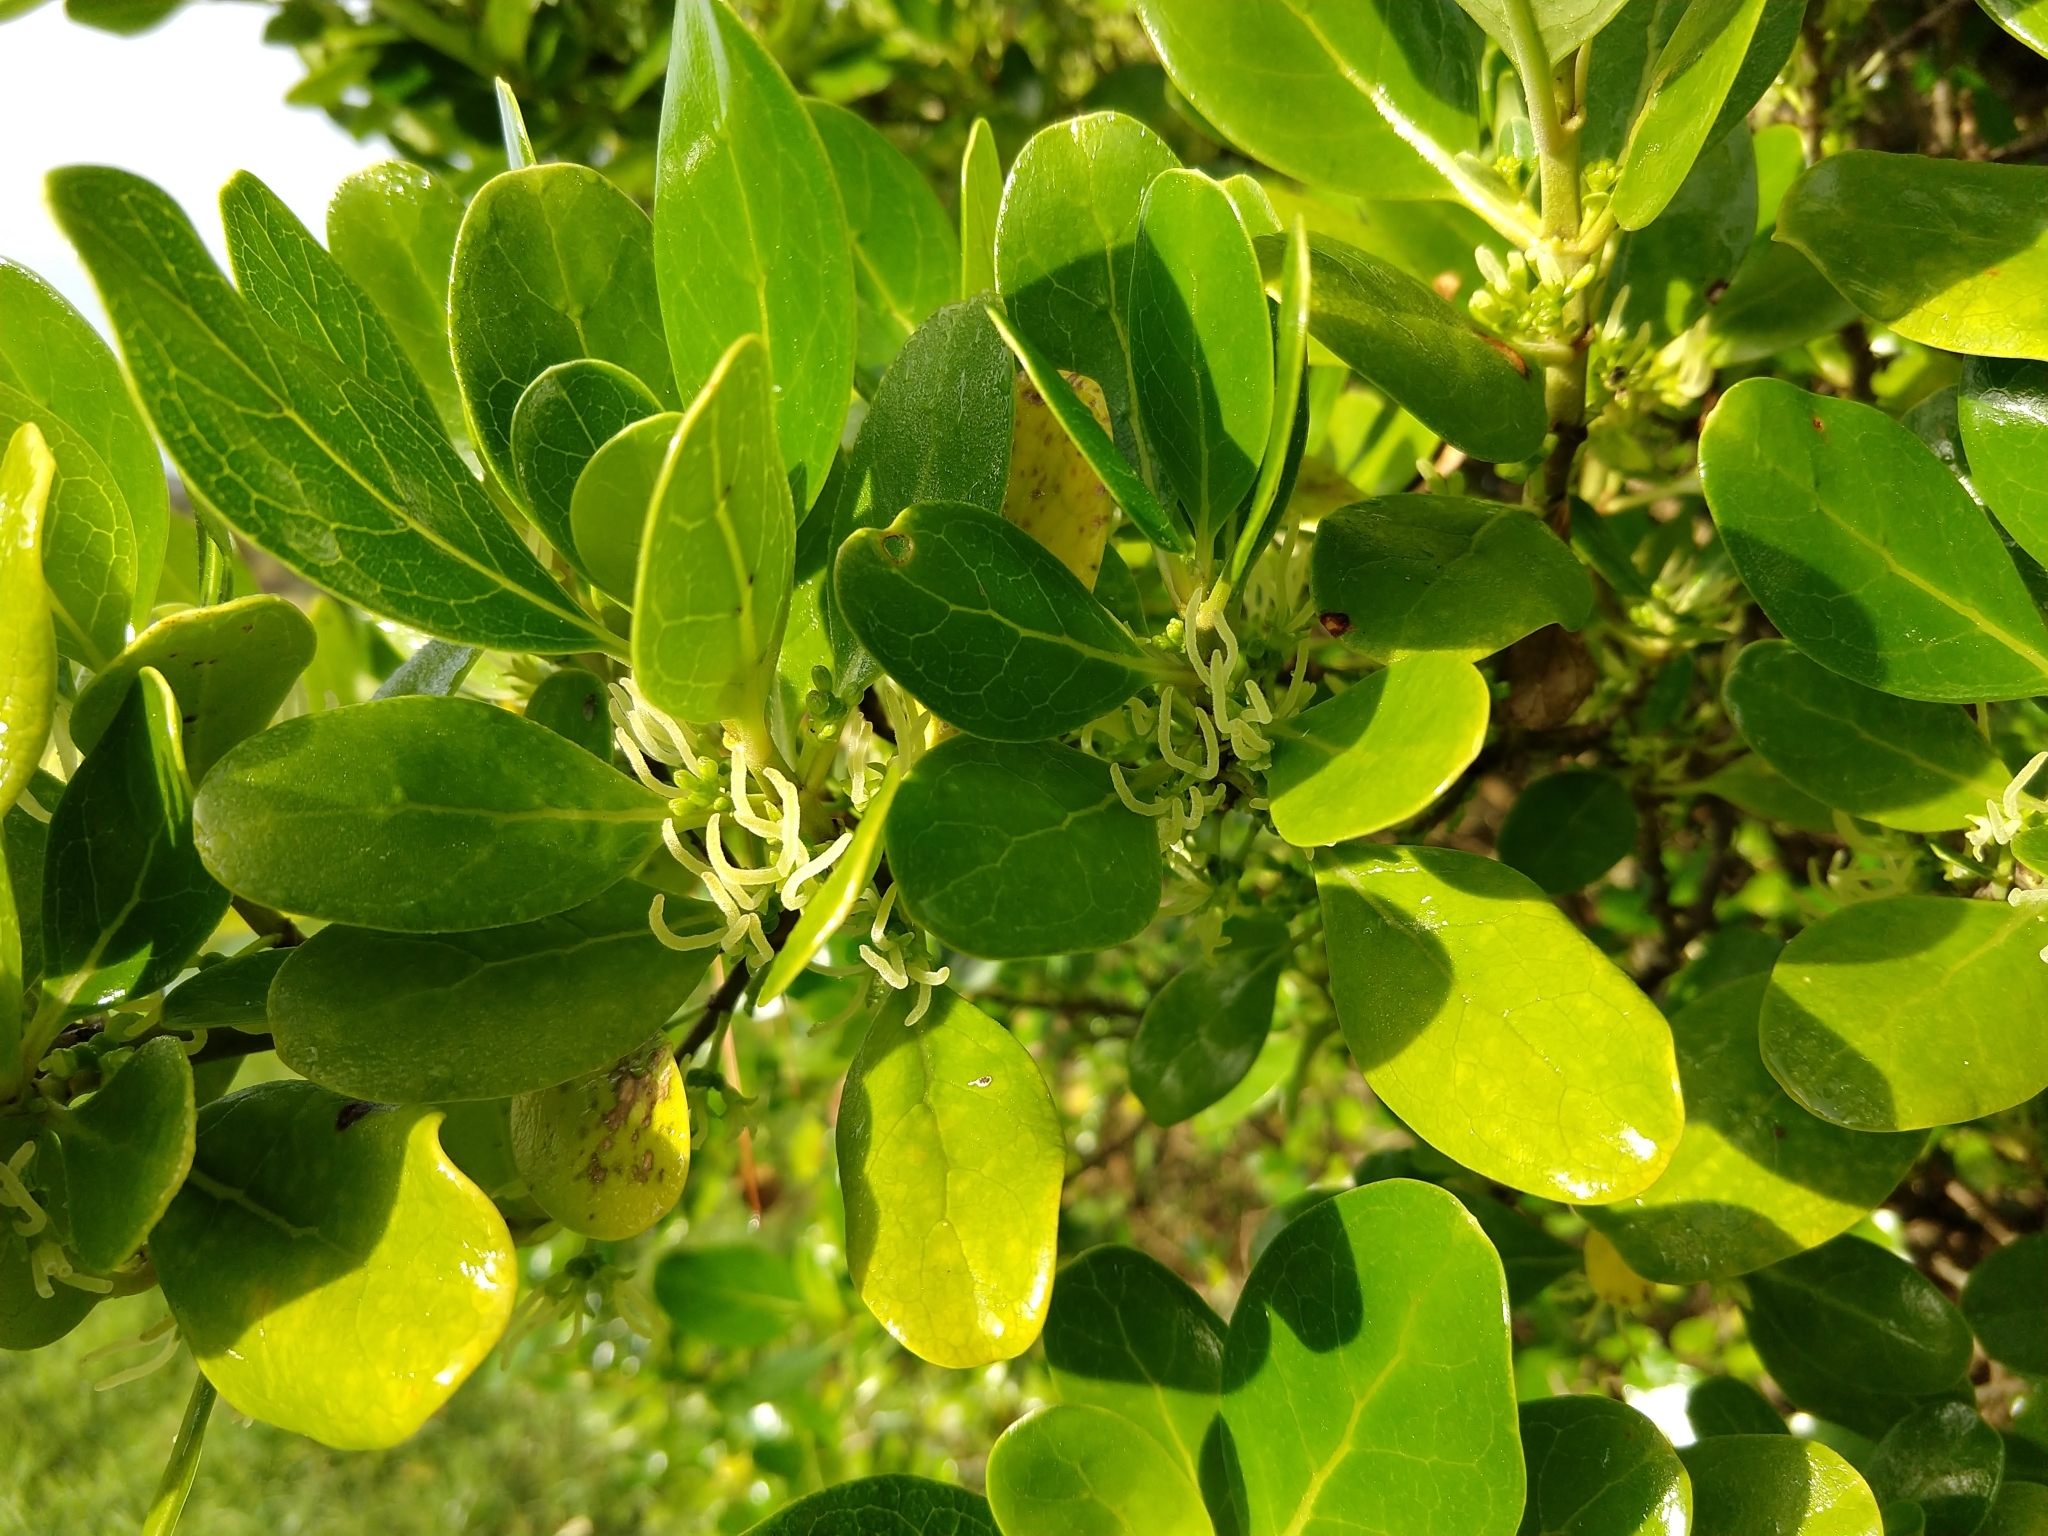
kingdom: Plantae
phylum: Tracheophyta
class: Magnoliopsida
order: Gentianales
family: Rubiaceae
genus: Coprosma
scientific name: Coprosma repens
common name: Tree bedstraw
